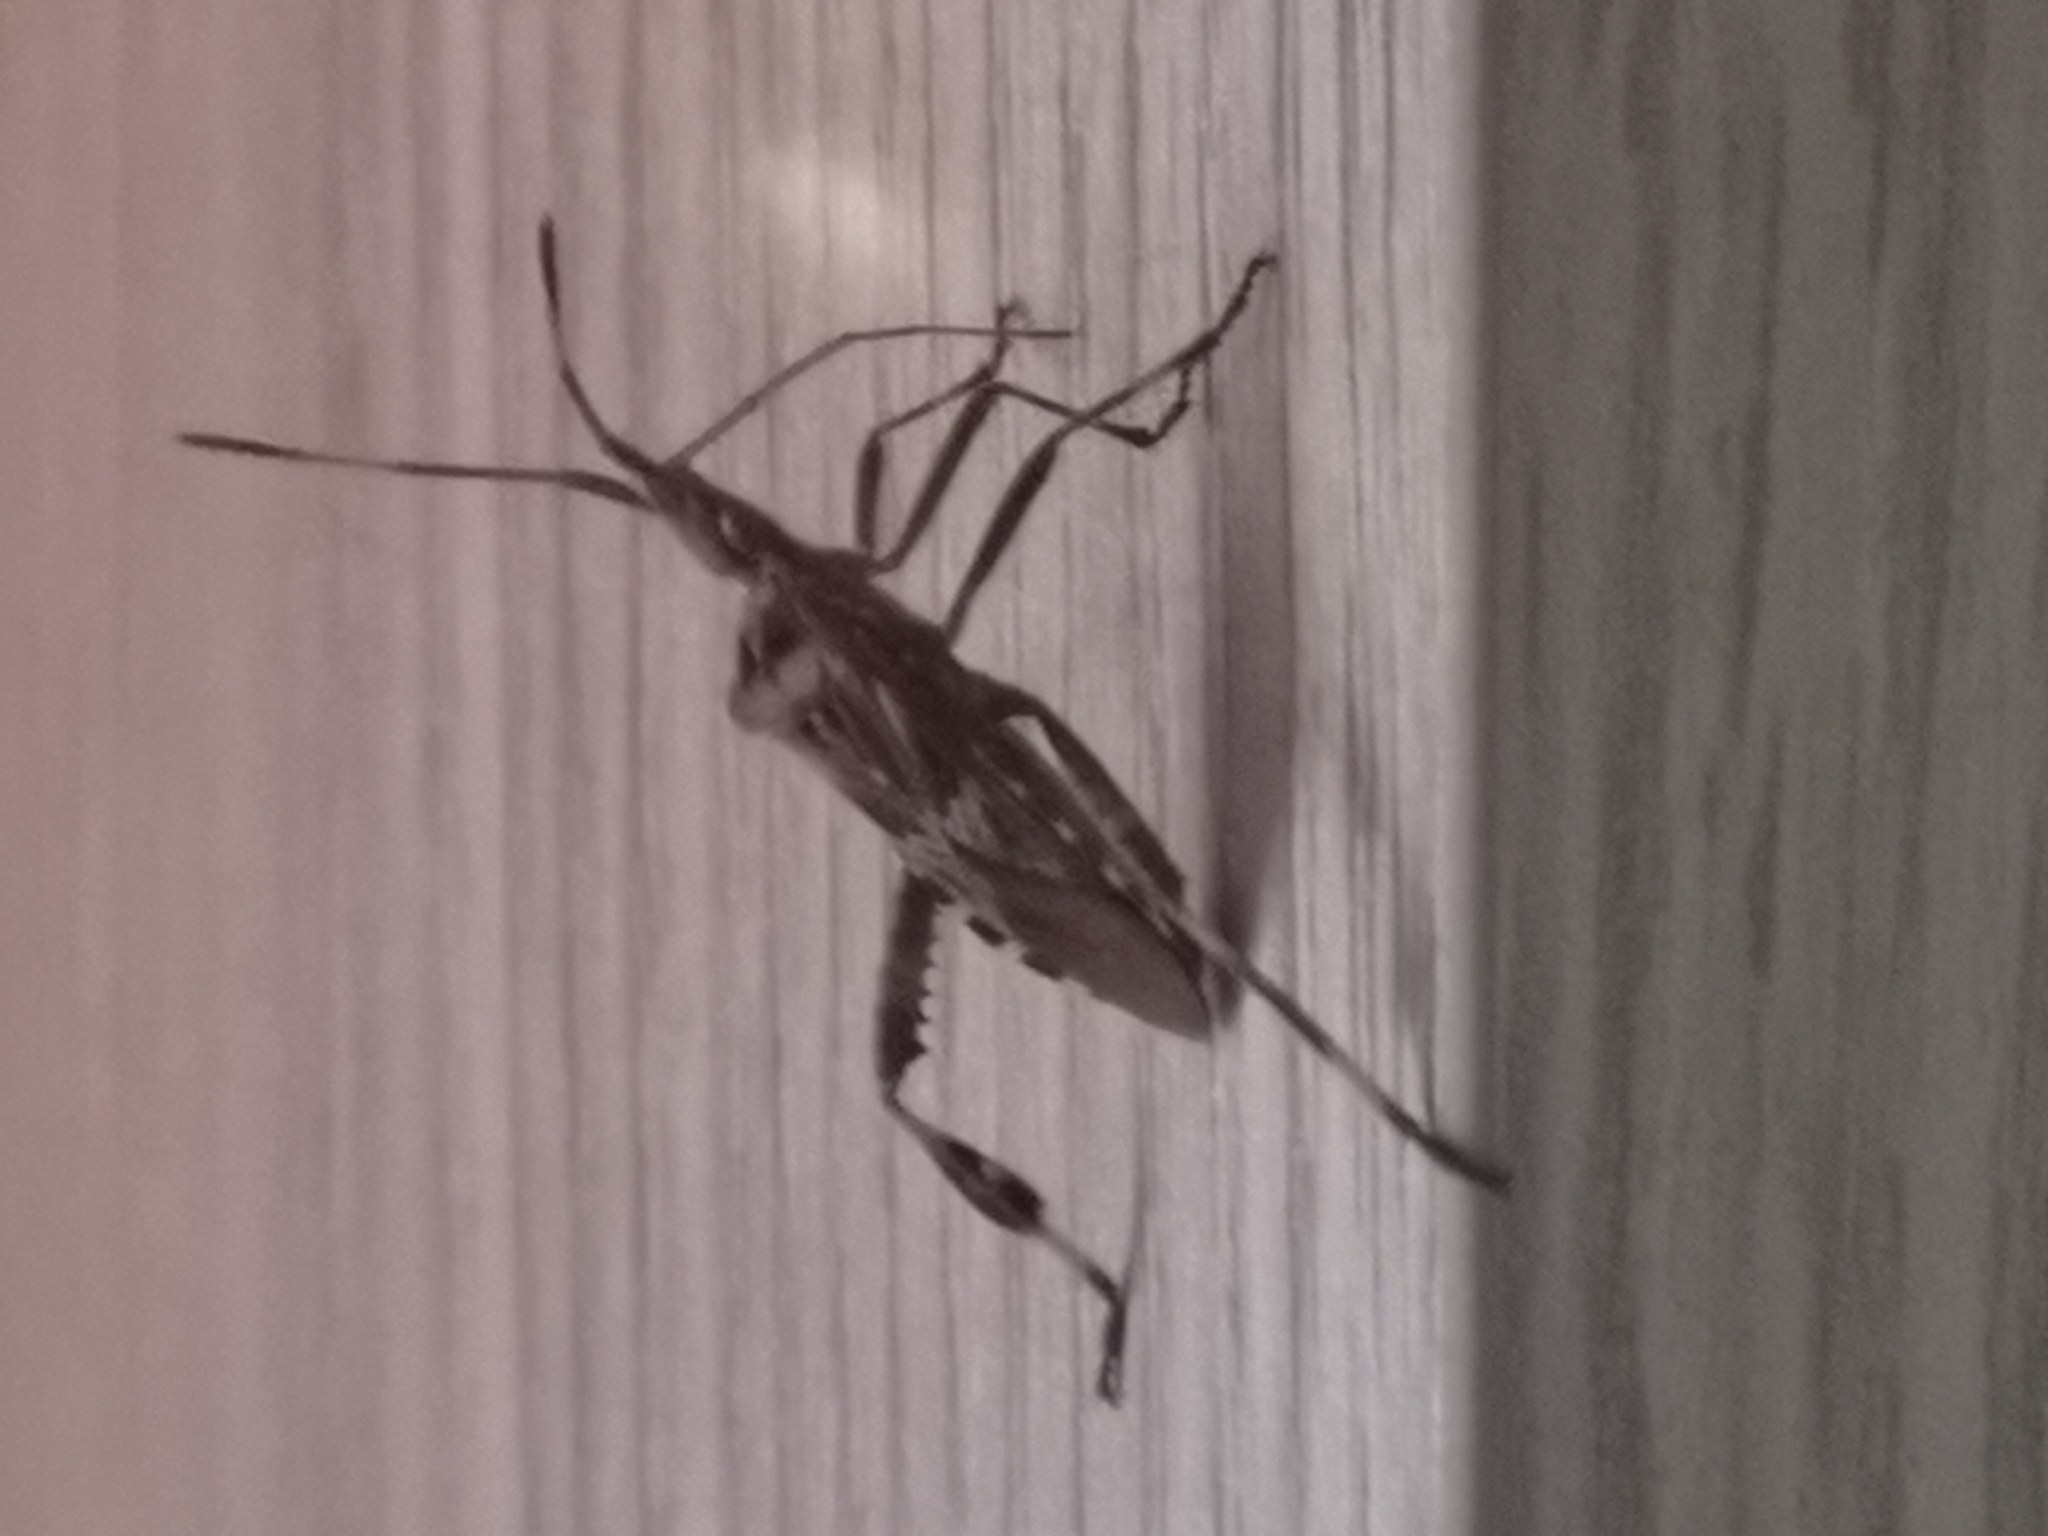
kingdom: Animalia
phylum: Arthropoda
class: Insecta
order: Hemiptera
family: Coreidae
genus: Leptoglossus
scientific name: Leptoglossus occidentalis
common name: Western conifer-seed bug
